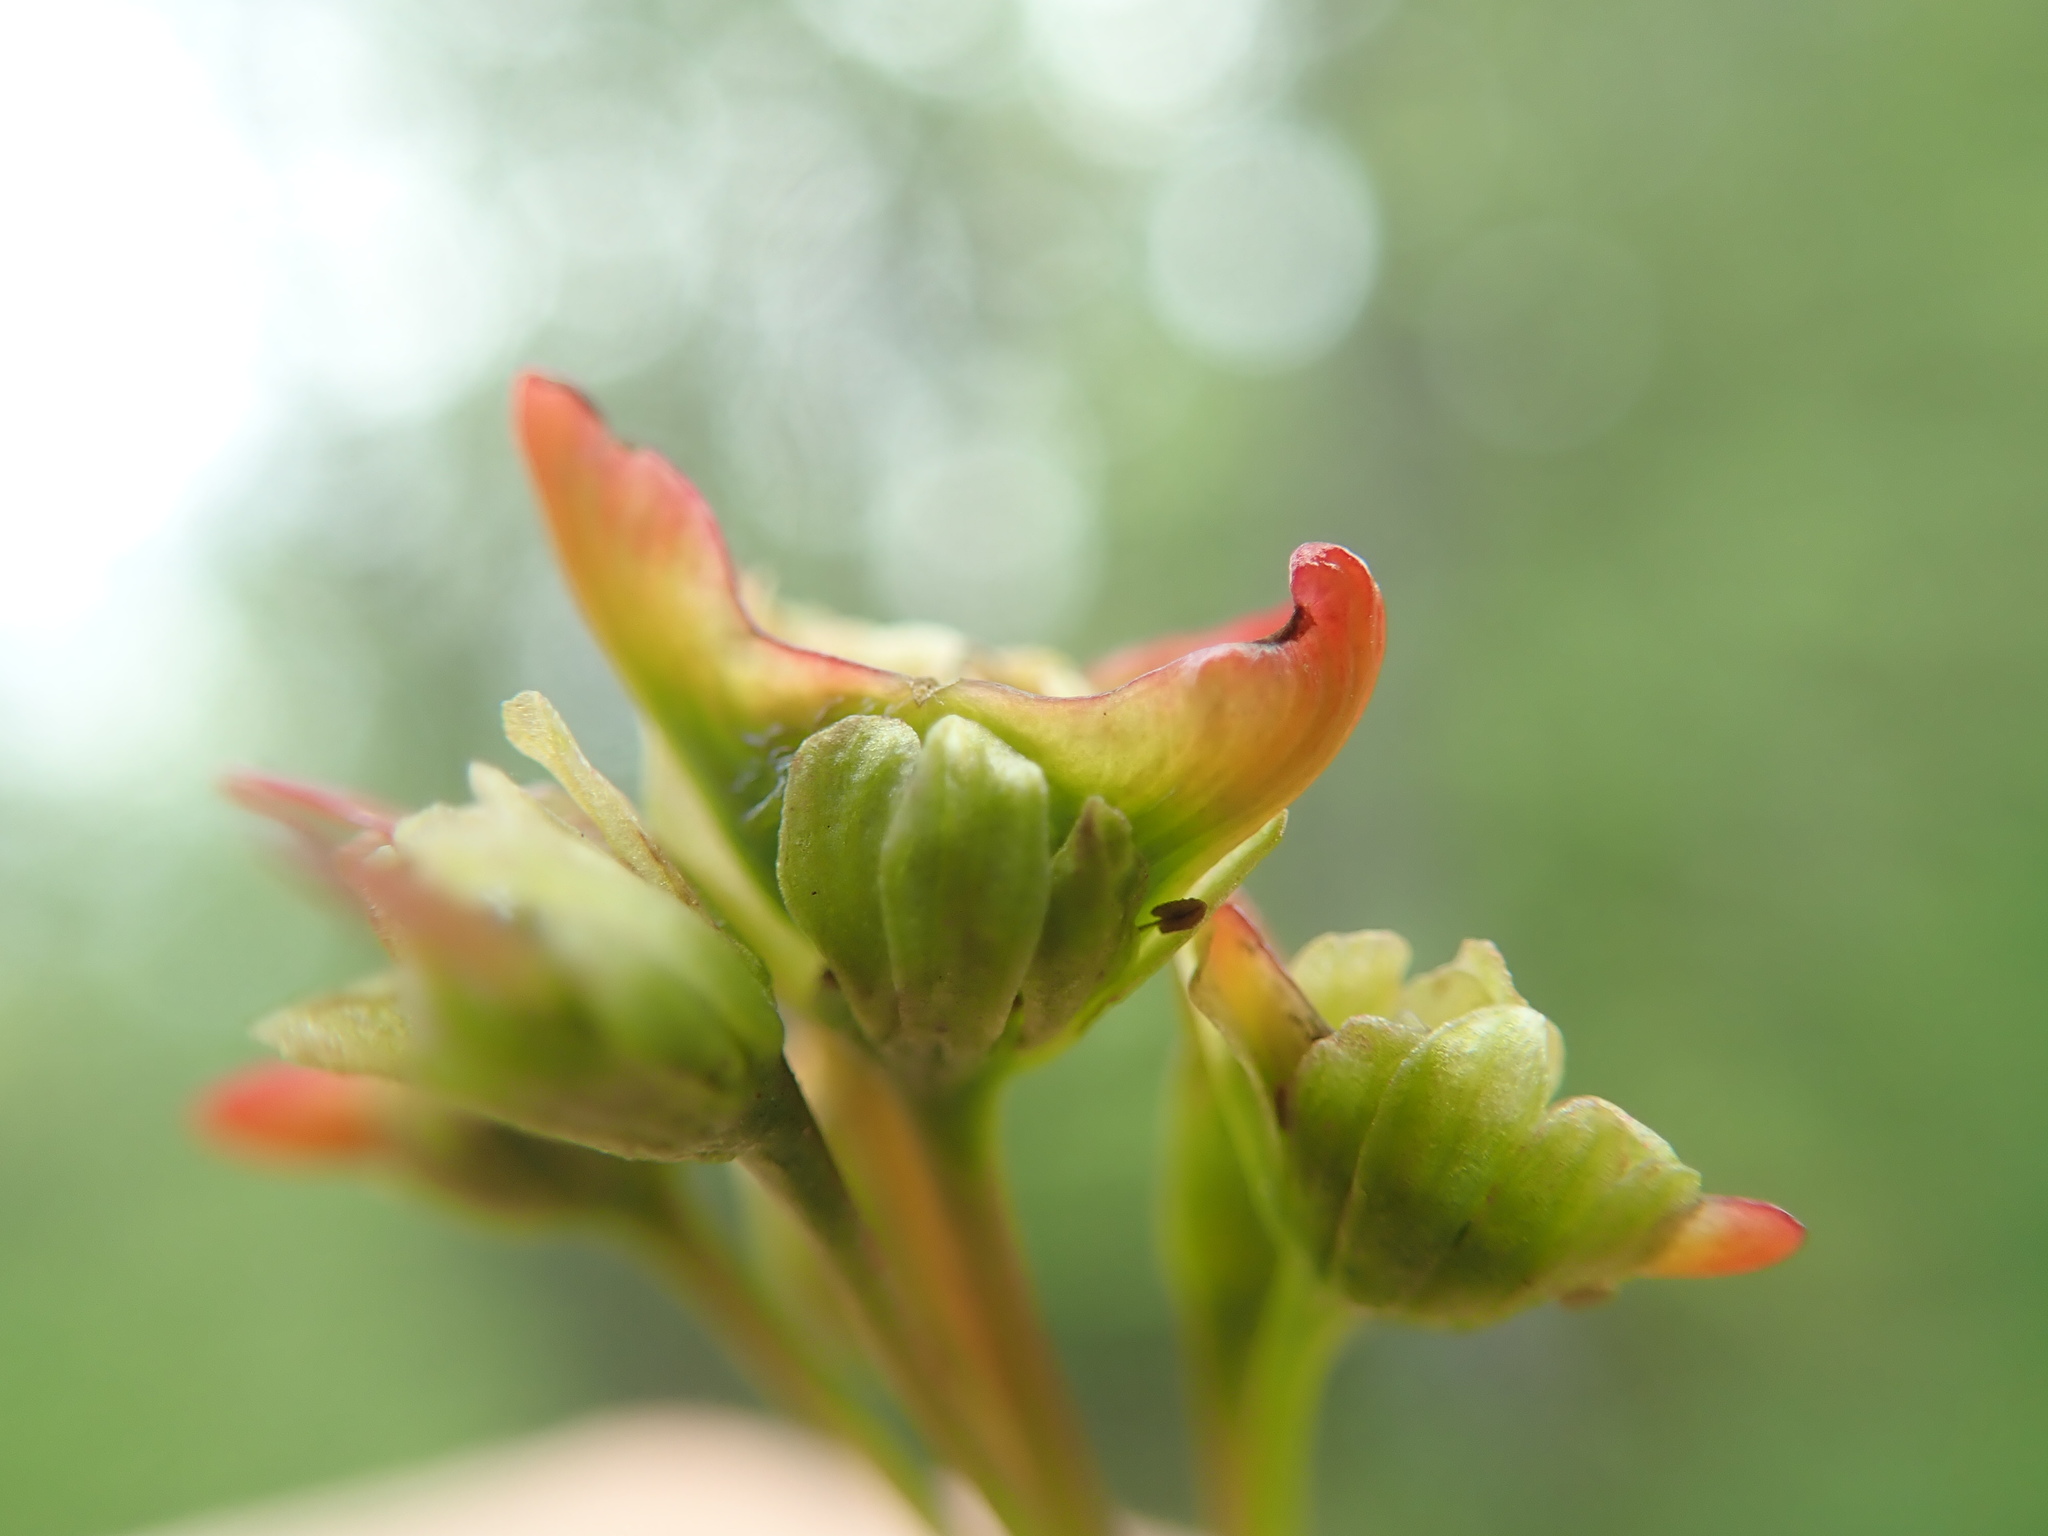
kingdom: Plantae
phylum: Tracheophyta
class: Magnoliopsida
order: Sapindales
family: Sapindaceae
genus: Acer
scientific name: Acer glabrum
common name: Rocky mountain maple
